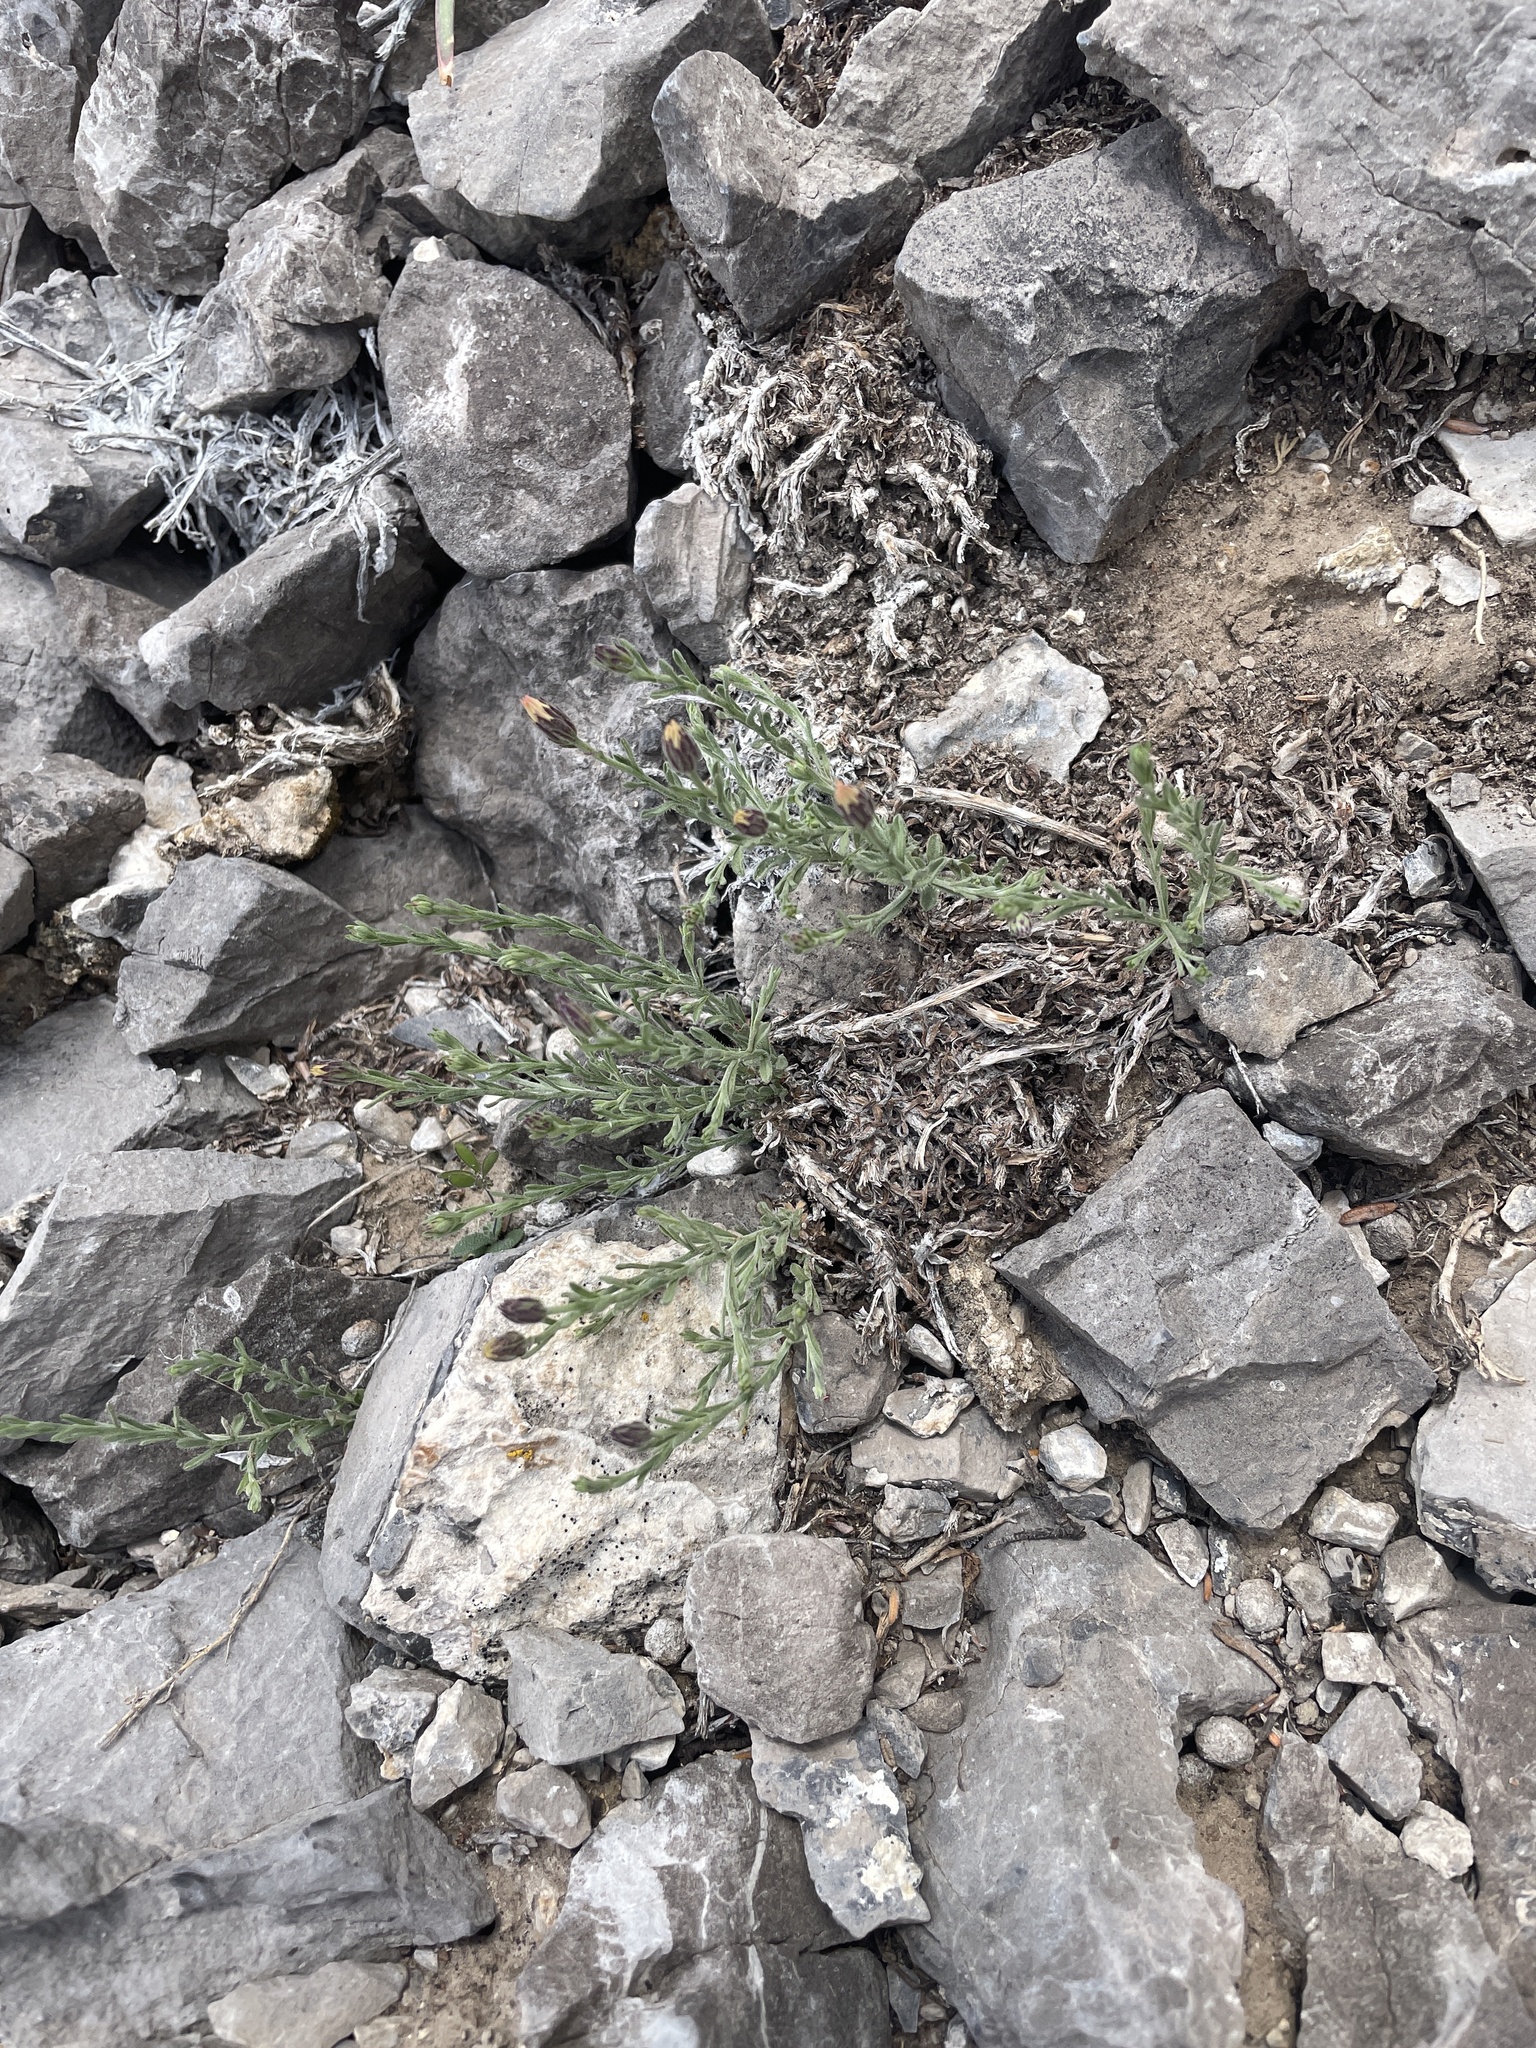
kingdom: Plantae
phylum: Tracheophyta
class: Magnoliopsida
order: Asterales
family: Asteraceae
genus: Chaetopappa
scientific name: Chaetopappa ericoides
